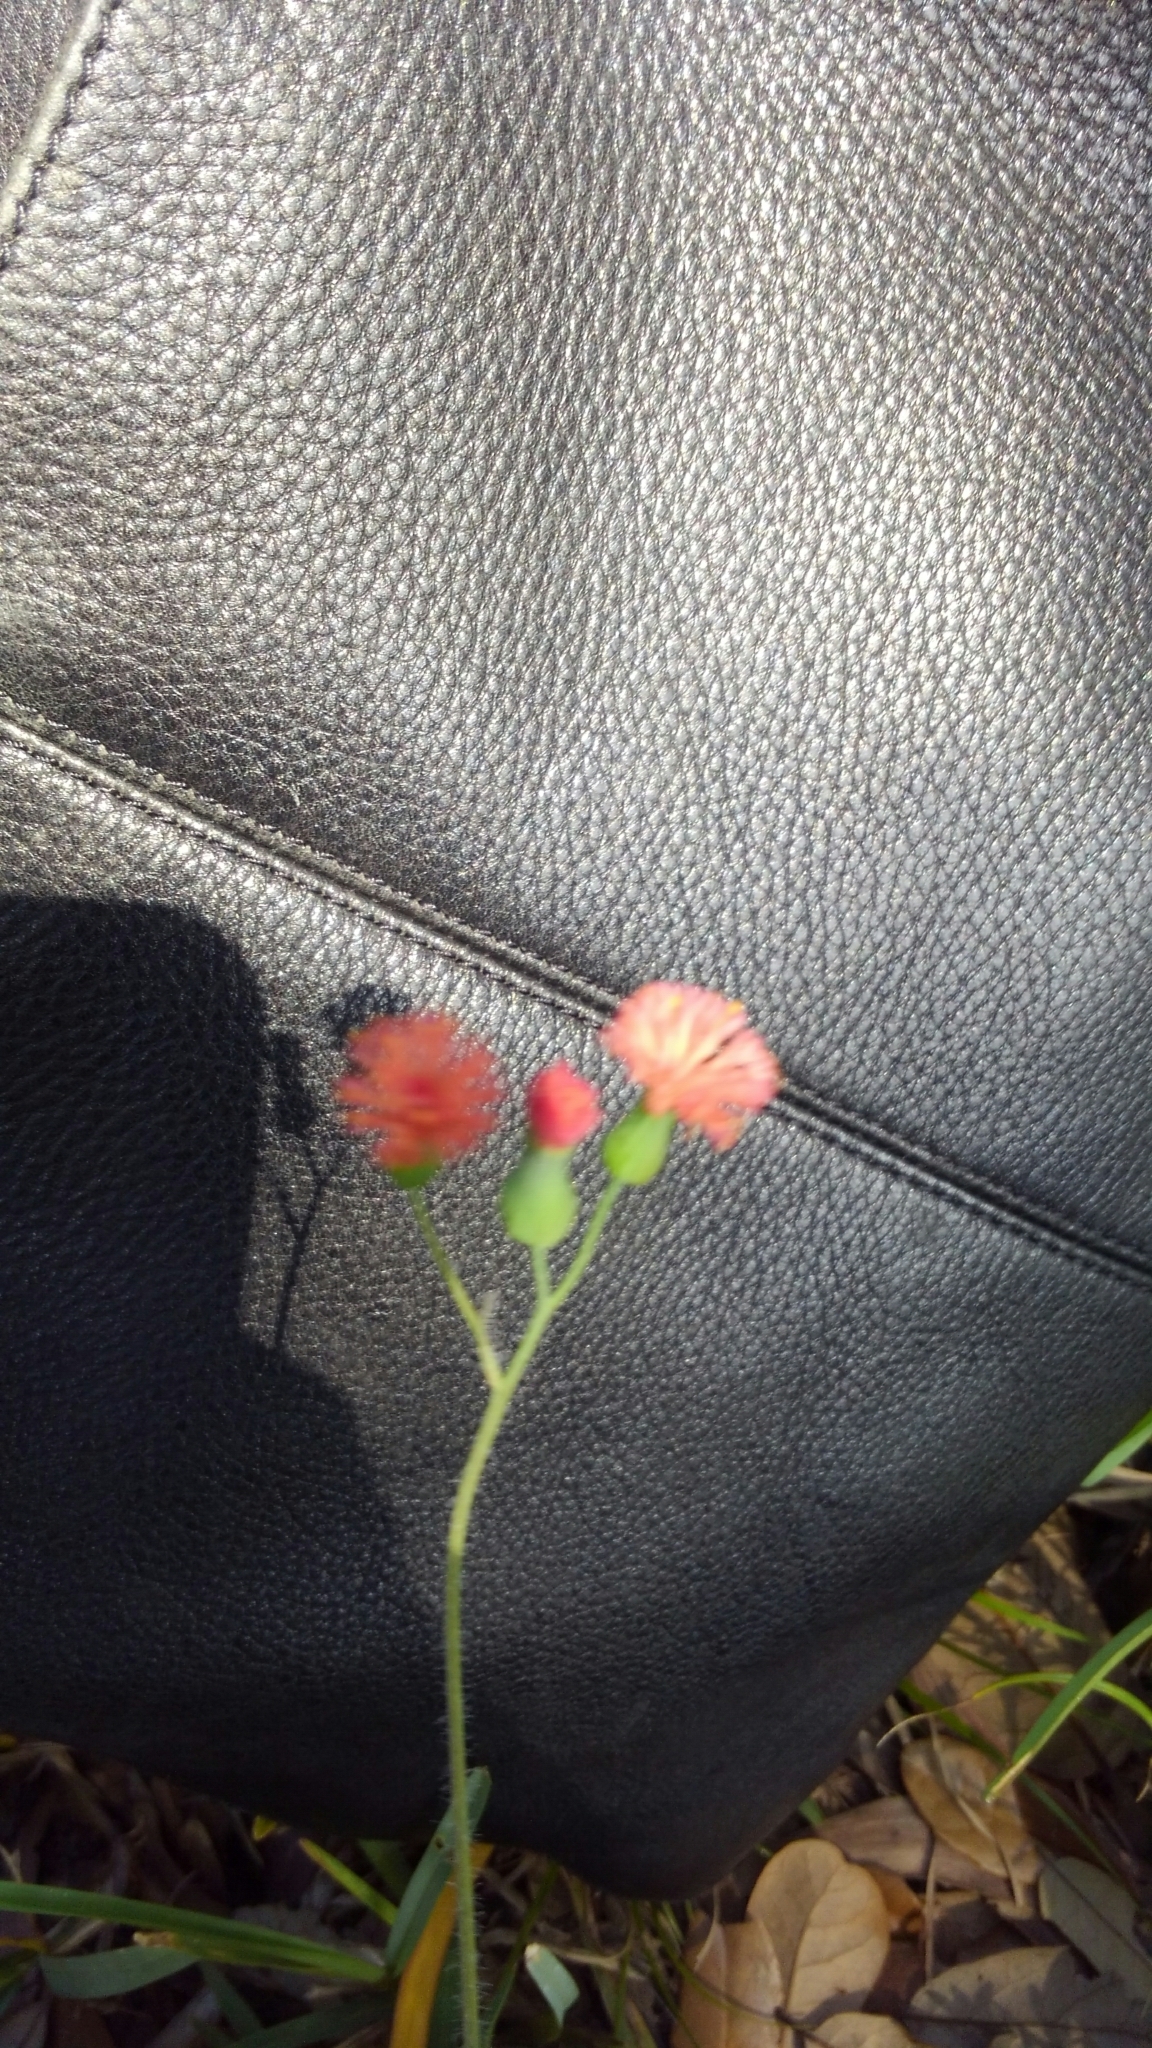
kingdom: Plantae
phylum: Tracheophyta
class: Magnoliopsida
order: Asterales
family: Asteraceae
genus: Emilia
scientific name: Emilia fosbergii
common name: Florida tasselflower
